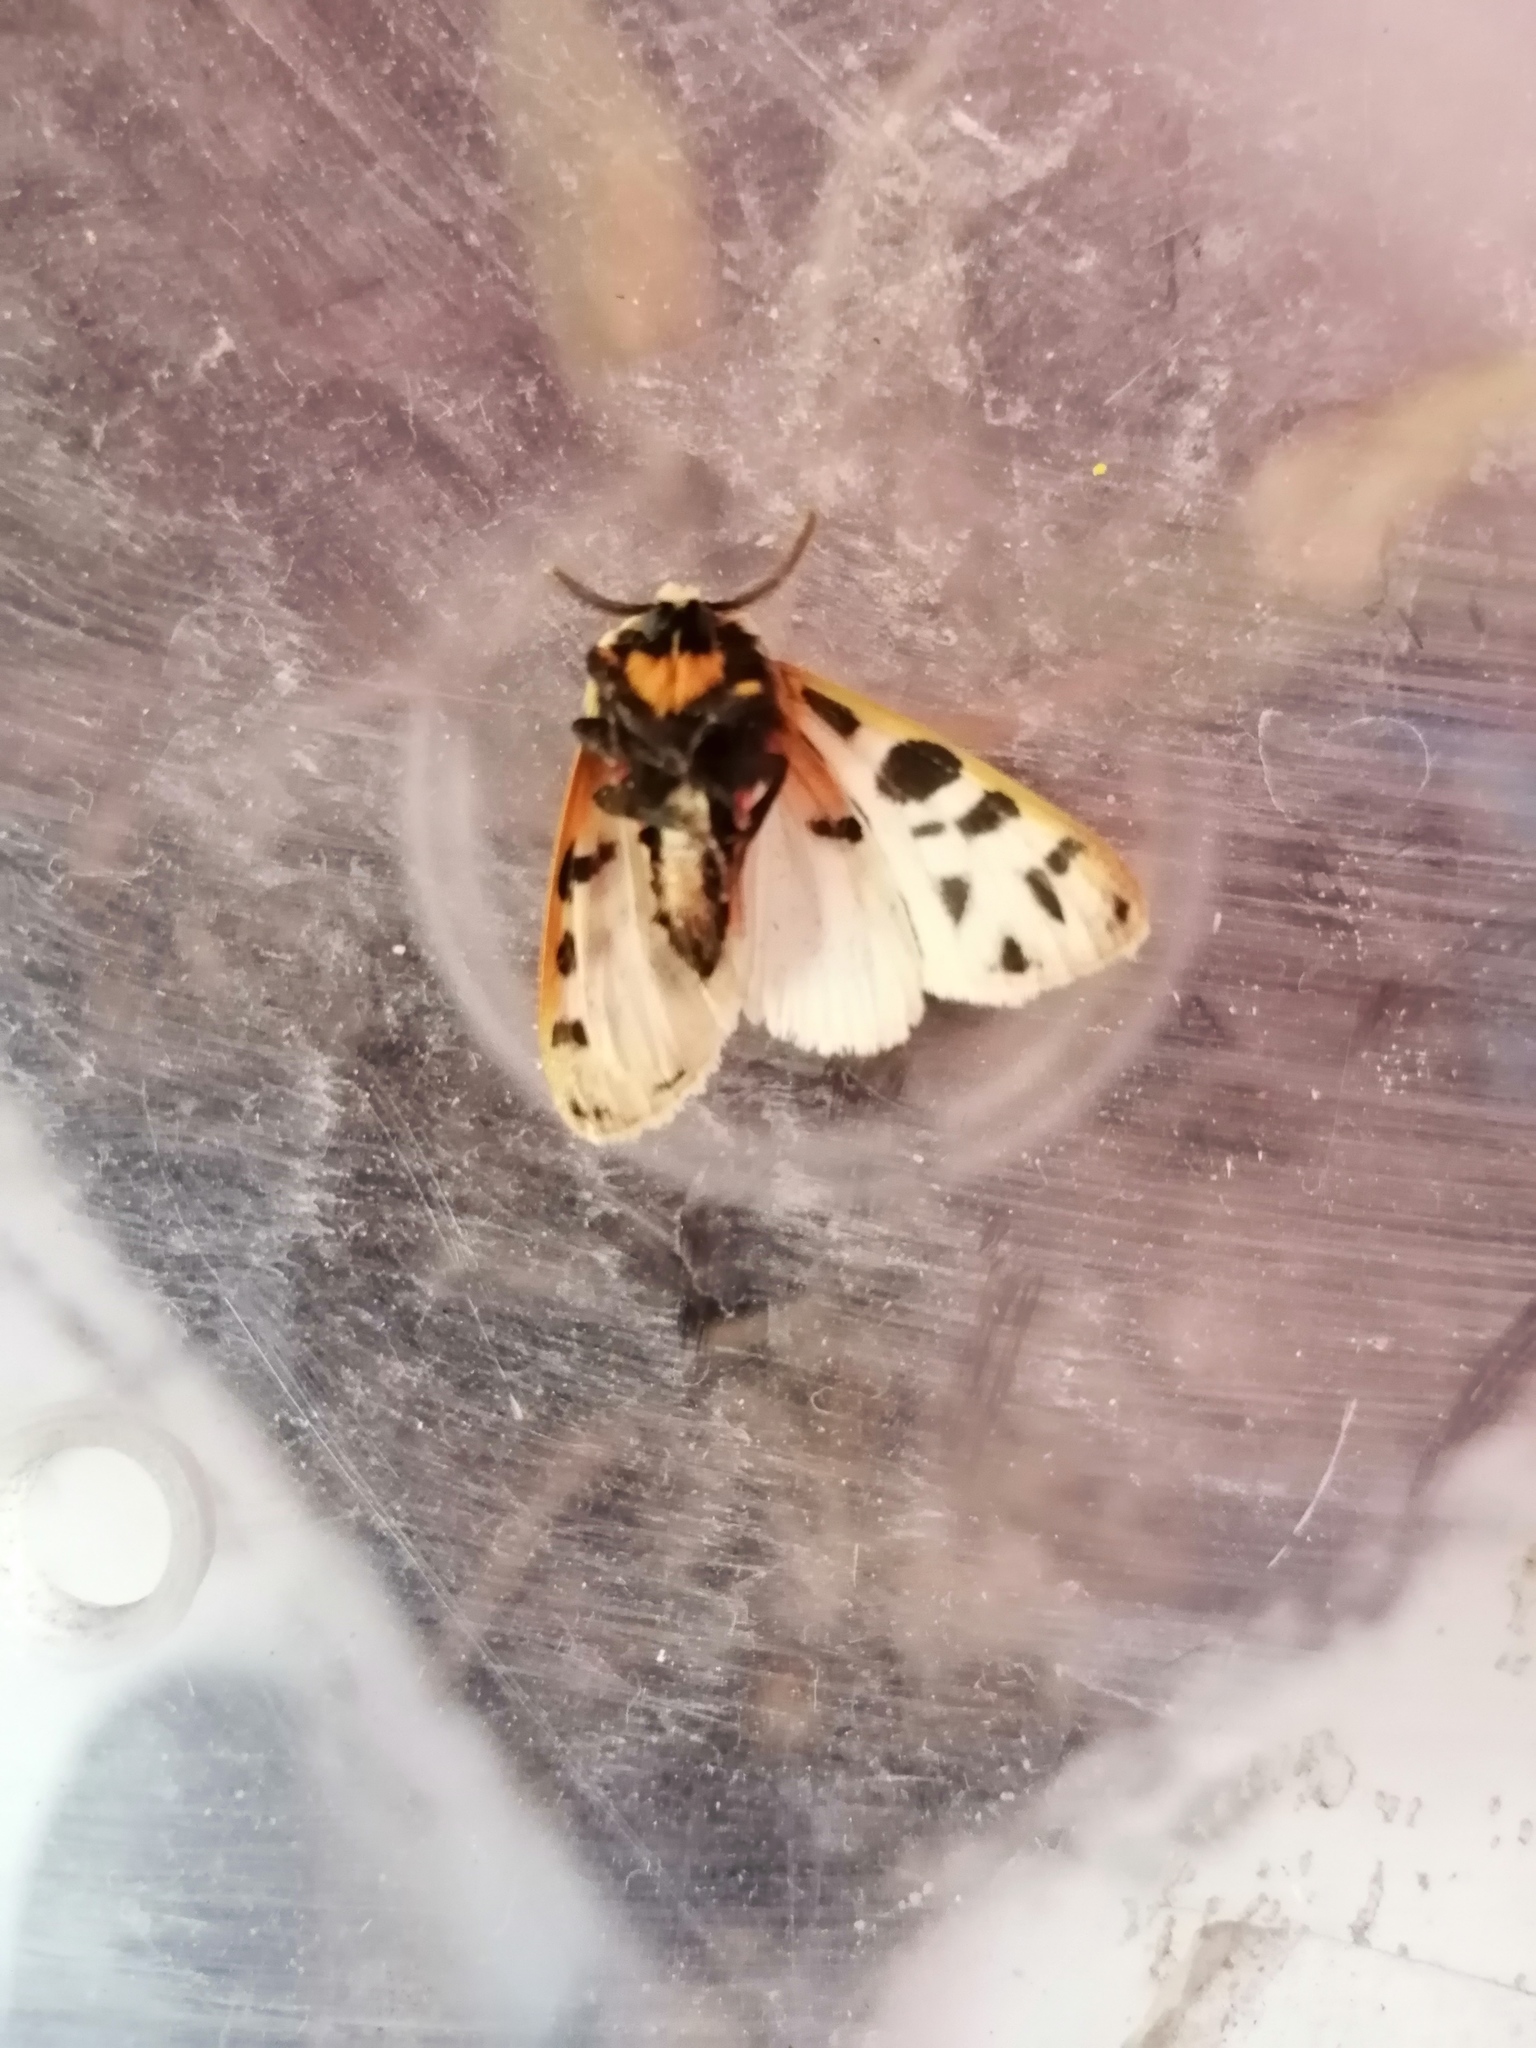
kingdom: Animalia
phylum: Arthropoda
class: Insecta
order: Lepidoptera
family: Erebidae
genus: Apantesis
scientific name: Apantesis
